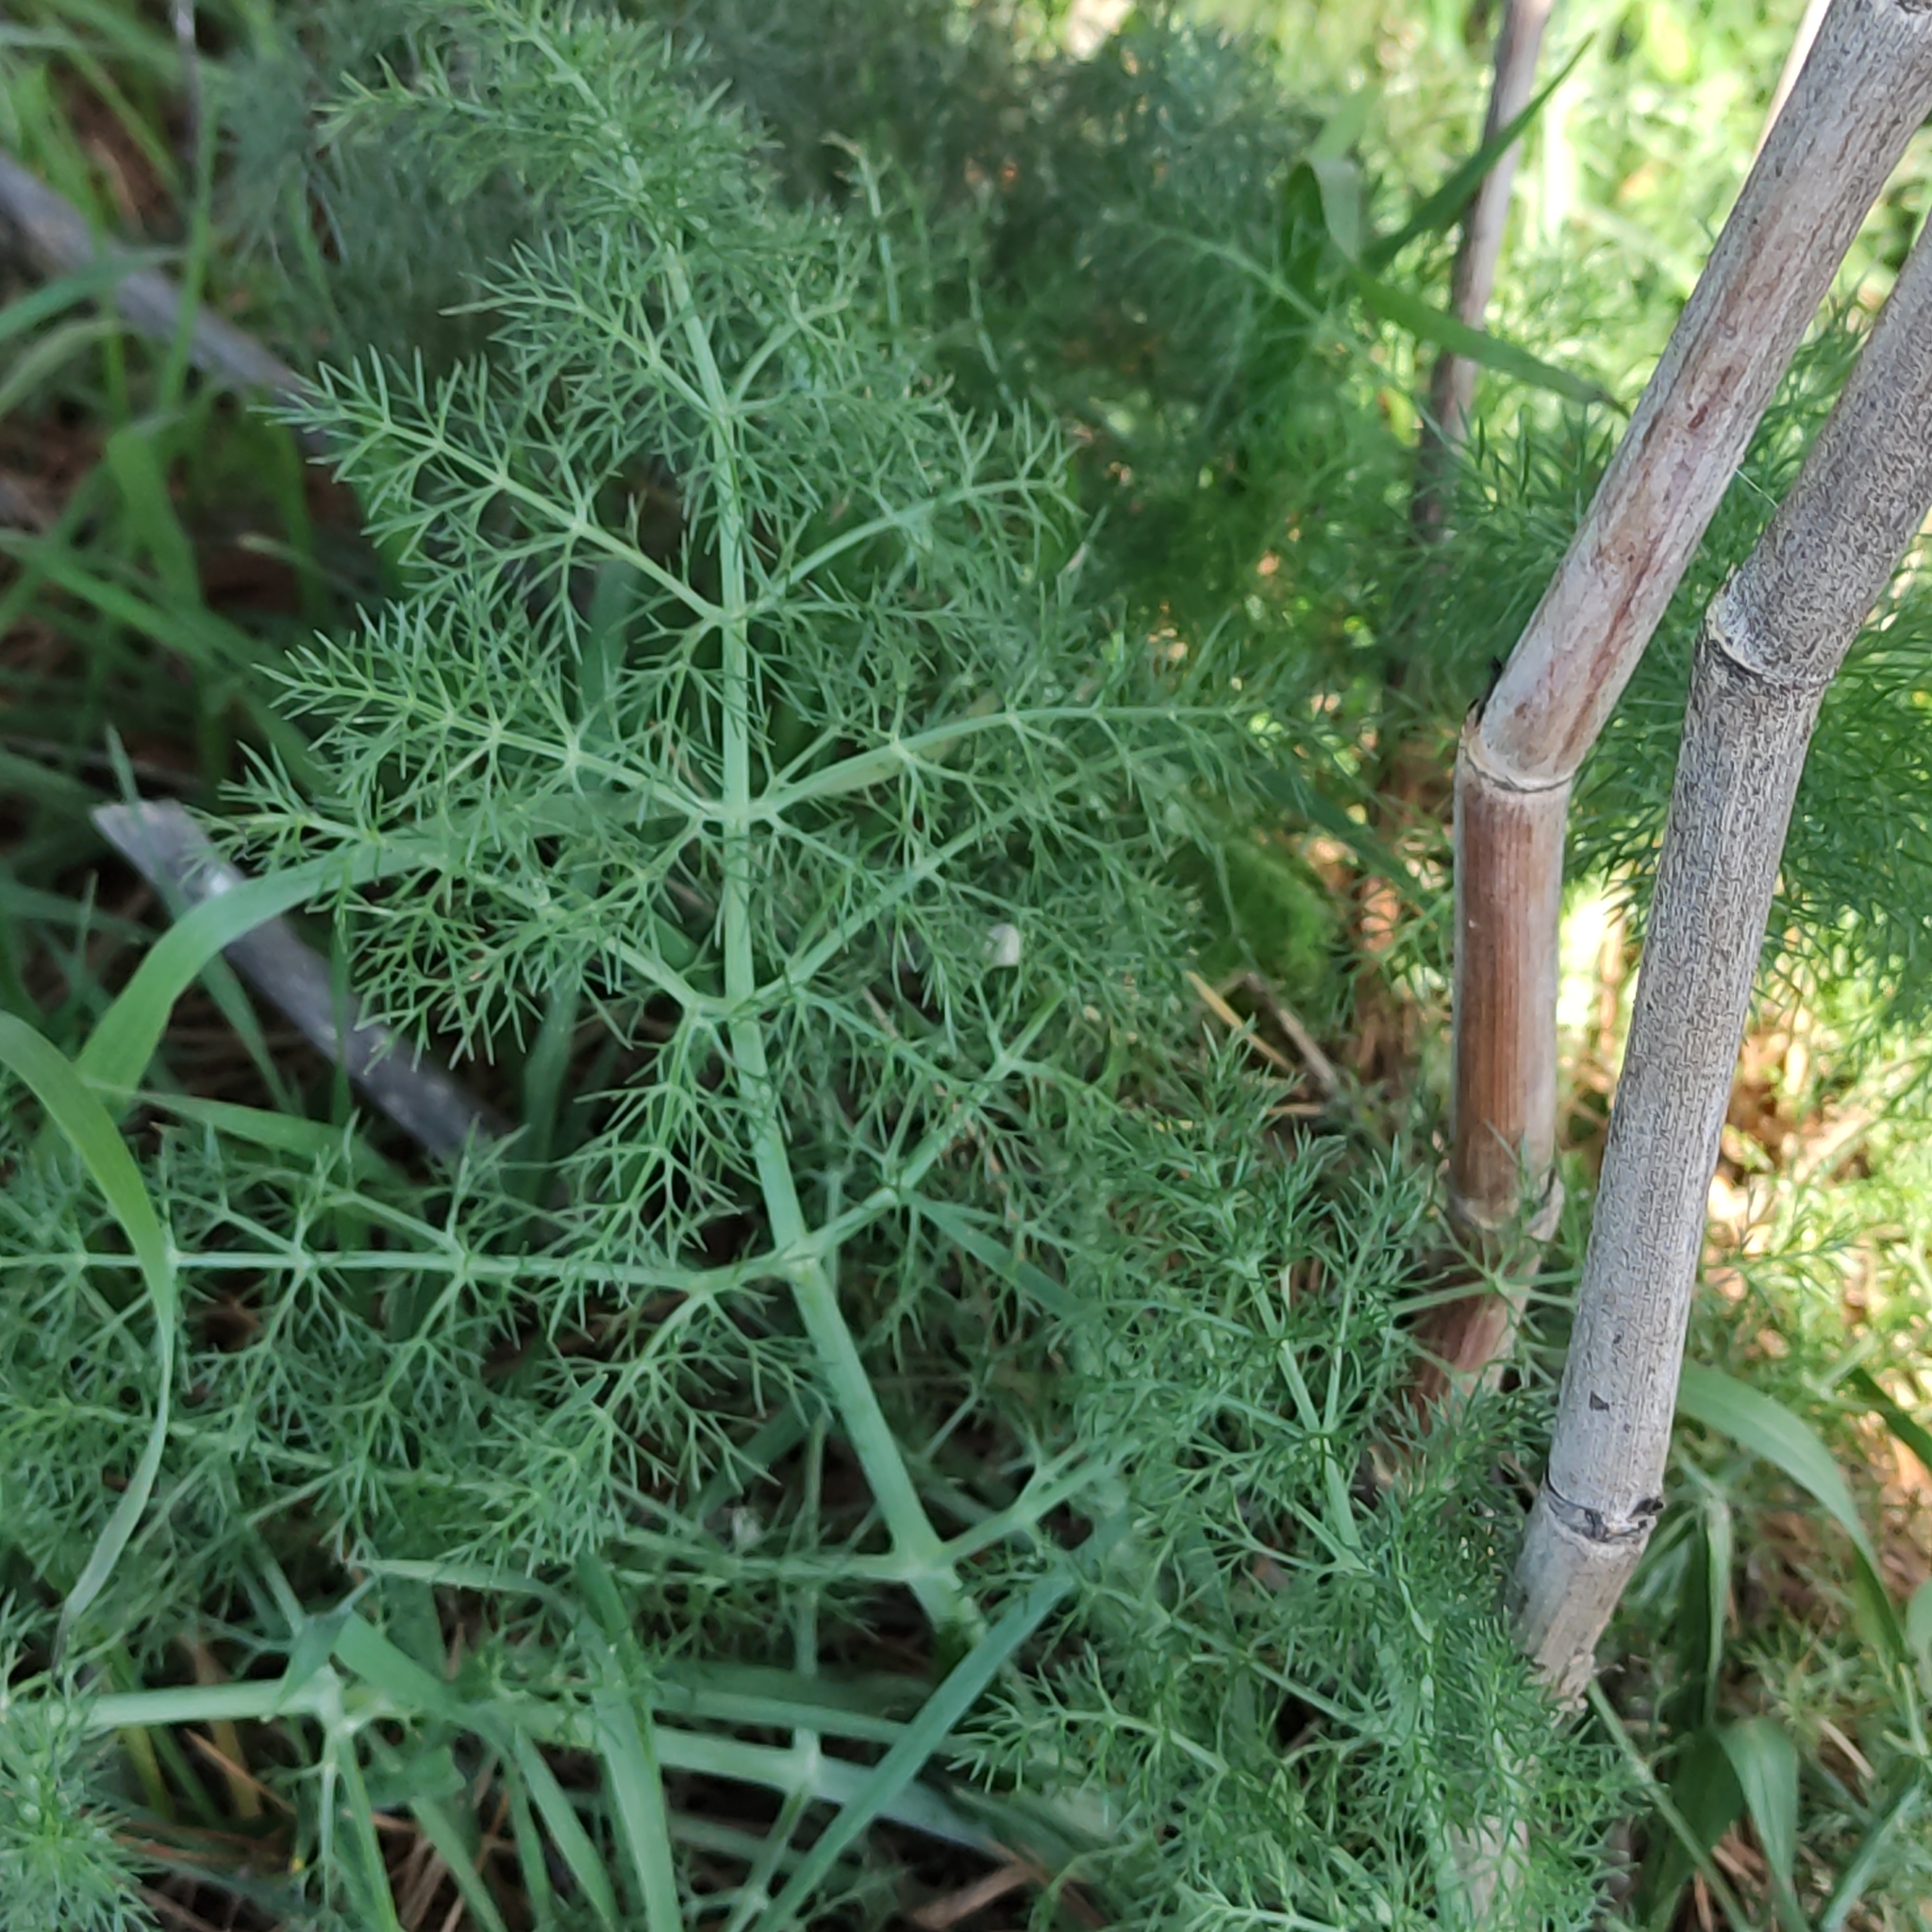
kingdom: Plantae
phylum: Tracheophyta
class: Magnoliopsida
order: Apiales
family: Apiaceae
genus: Foeniculum
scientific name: Foeniculum vulgare
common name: Fennel
